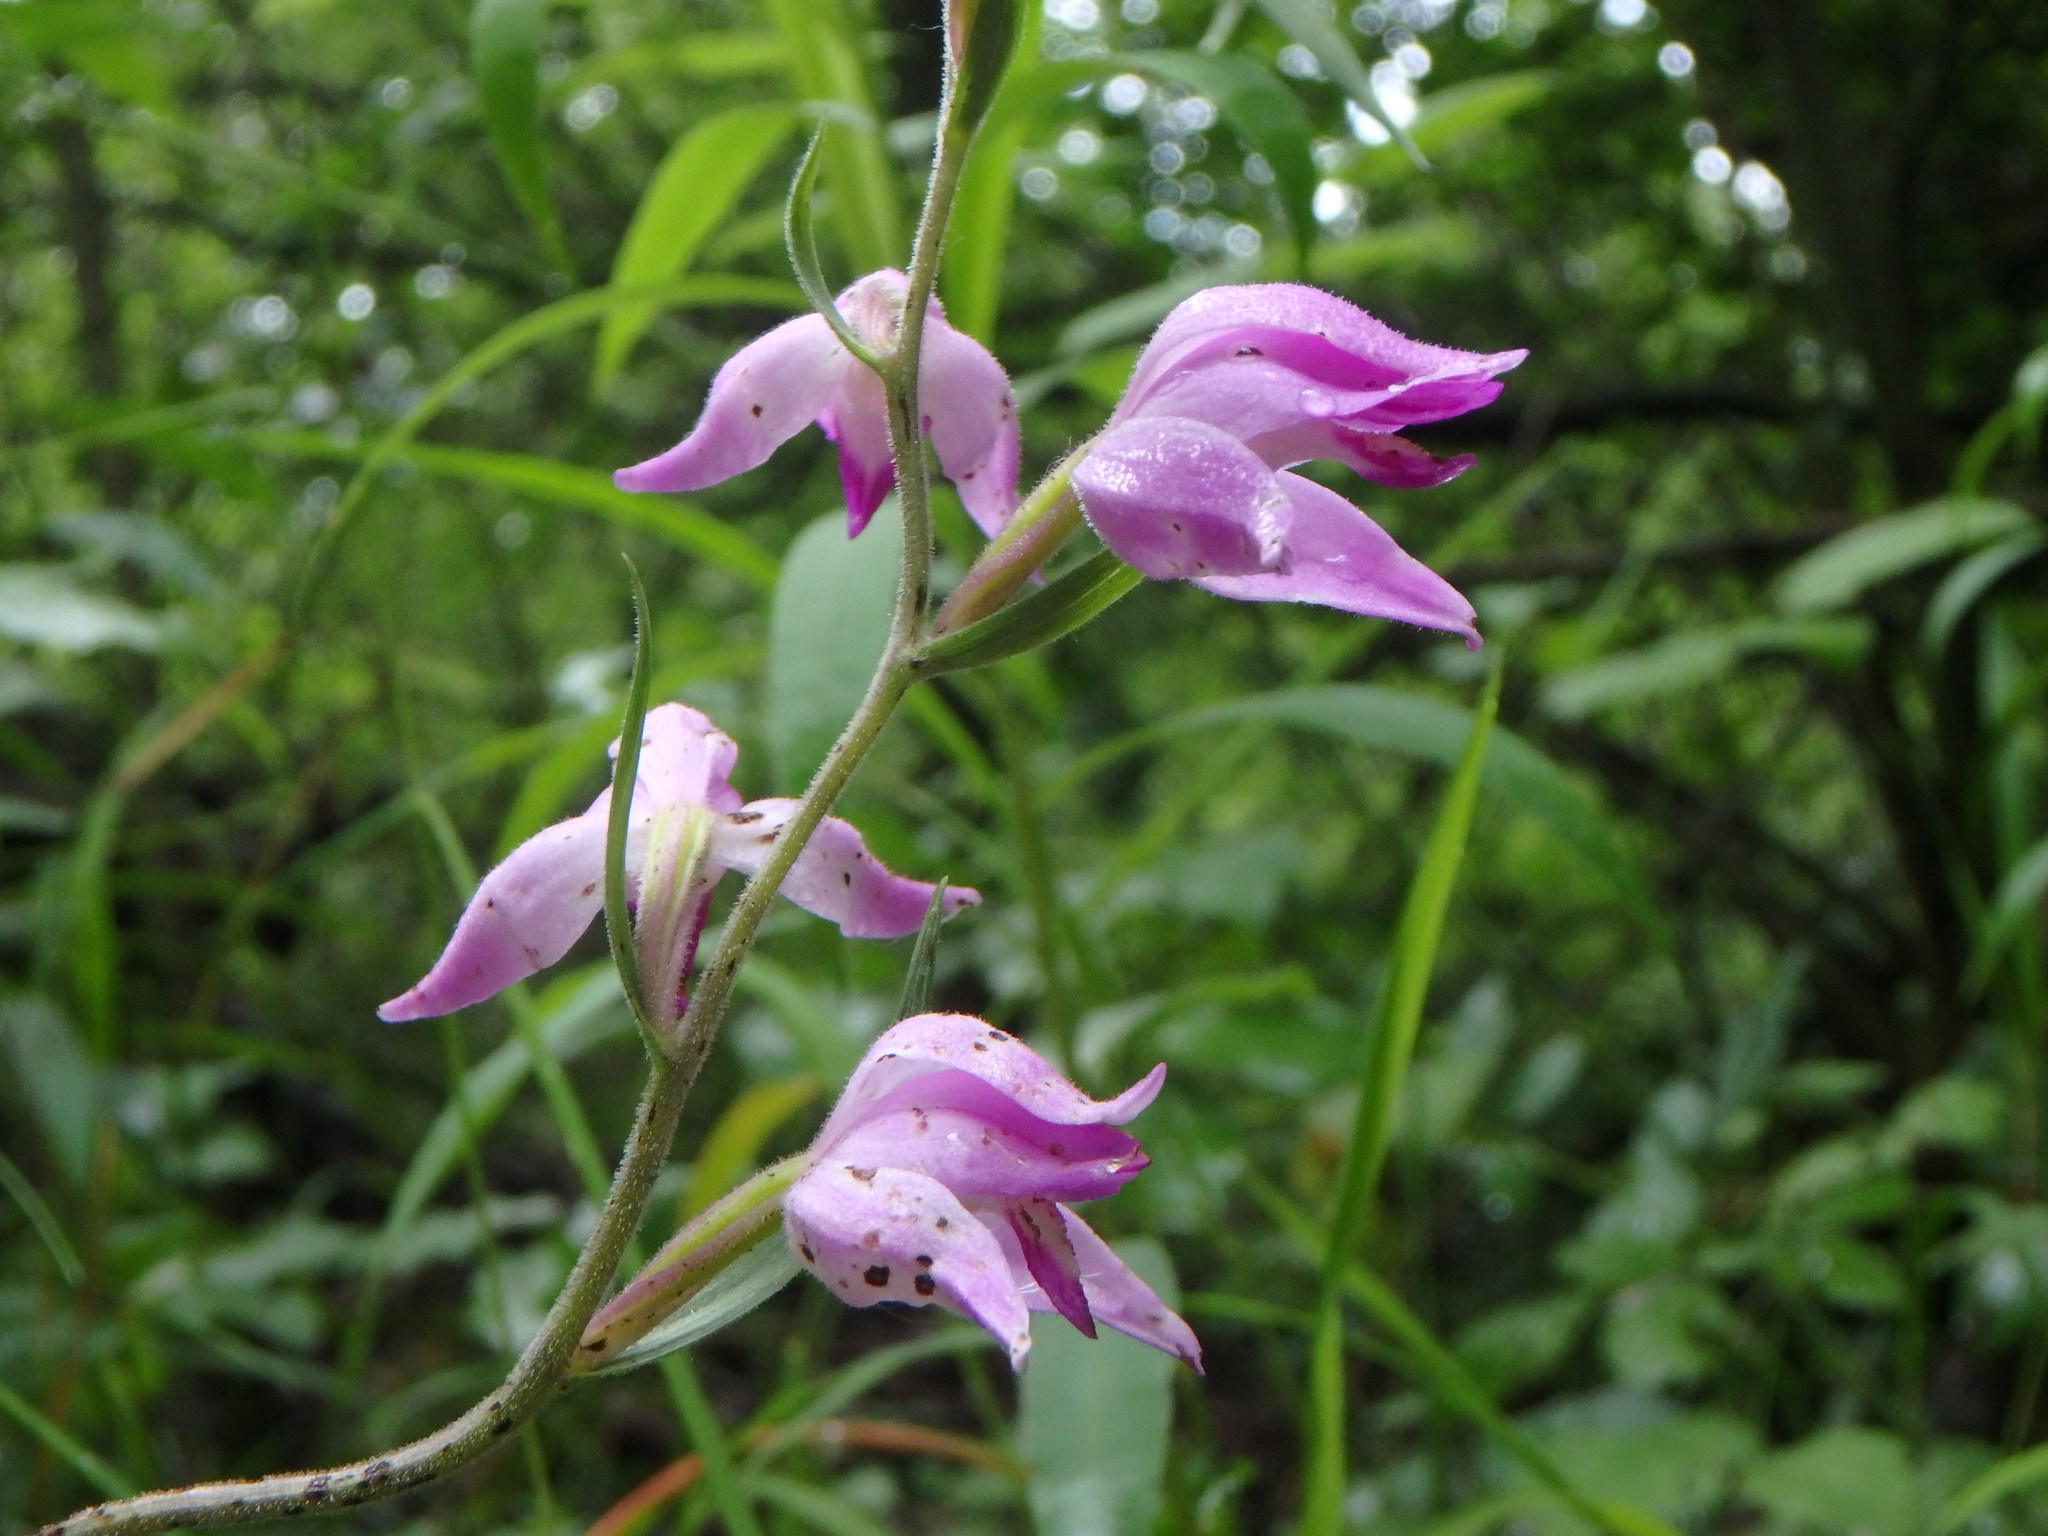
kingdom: Plantae
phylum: Tracheophyta
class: Liliopsida
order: Asparagales
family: Orchidaceae
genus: Cephalanthera
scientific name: Cephalanthera rubra
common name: Red helleborine
